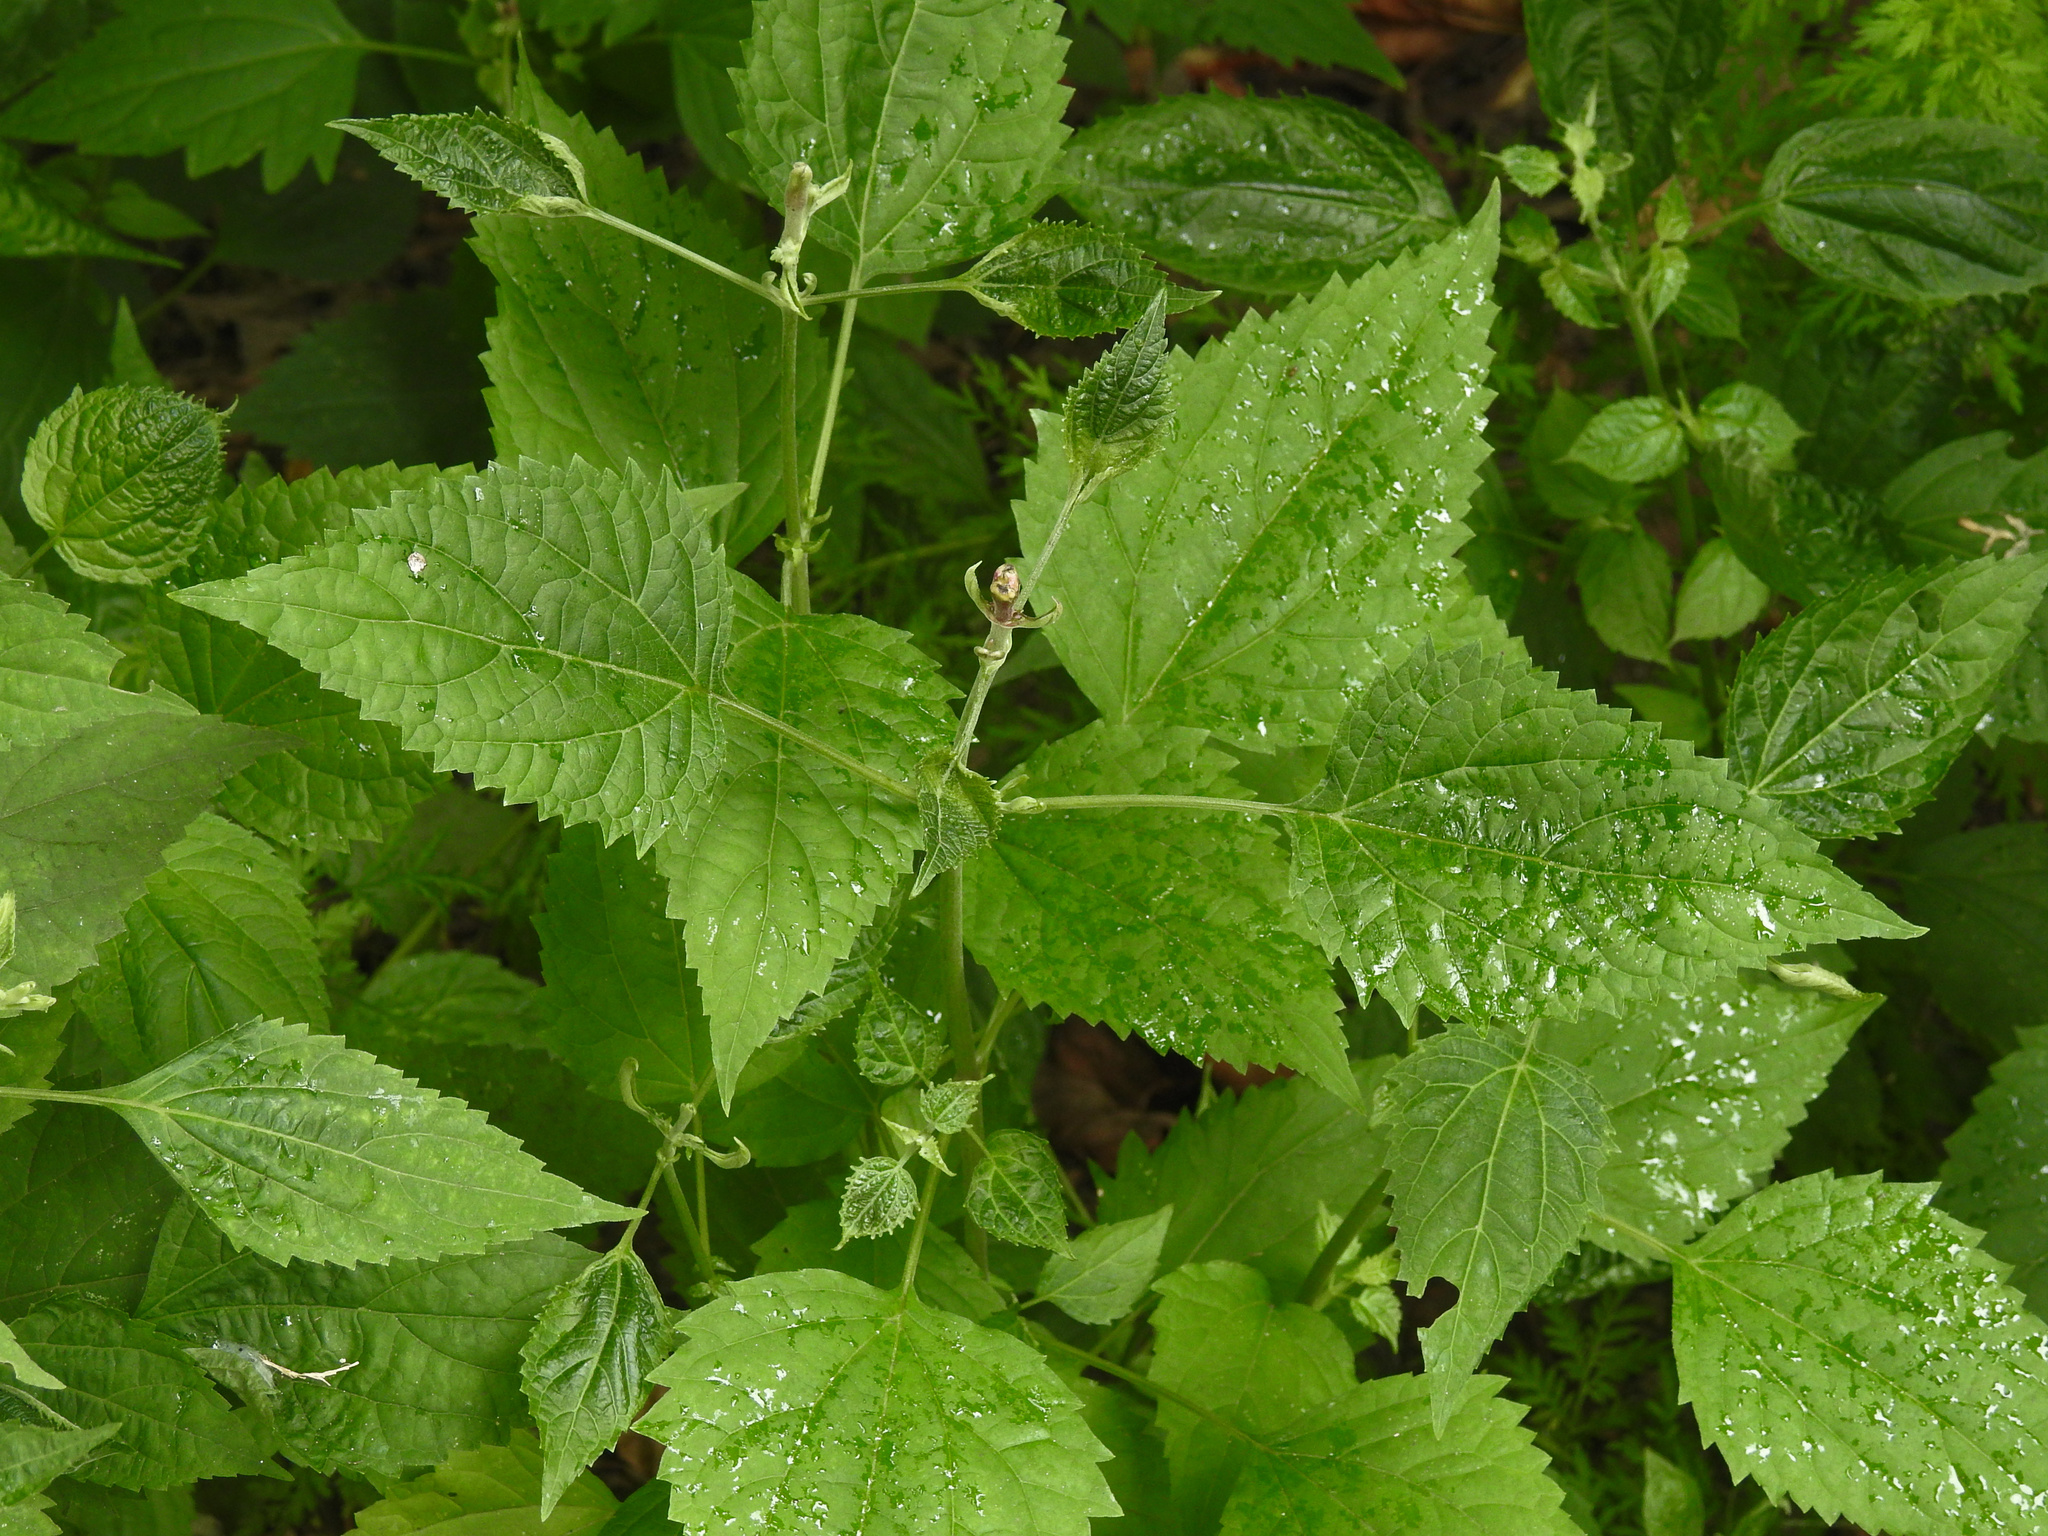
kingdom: Plantae
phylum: Tracheophyta
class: Magnoliopsida
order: Asterales
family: Asteraceae
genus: Ageratina
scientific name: Ageratina altissima
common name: White snakeroot
